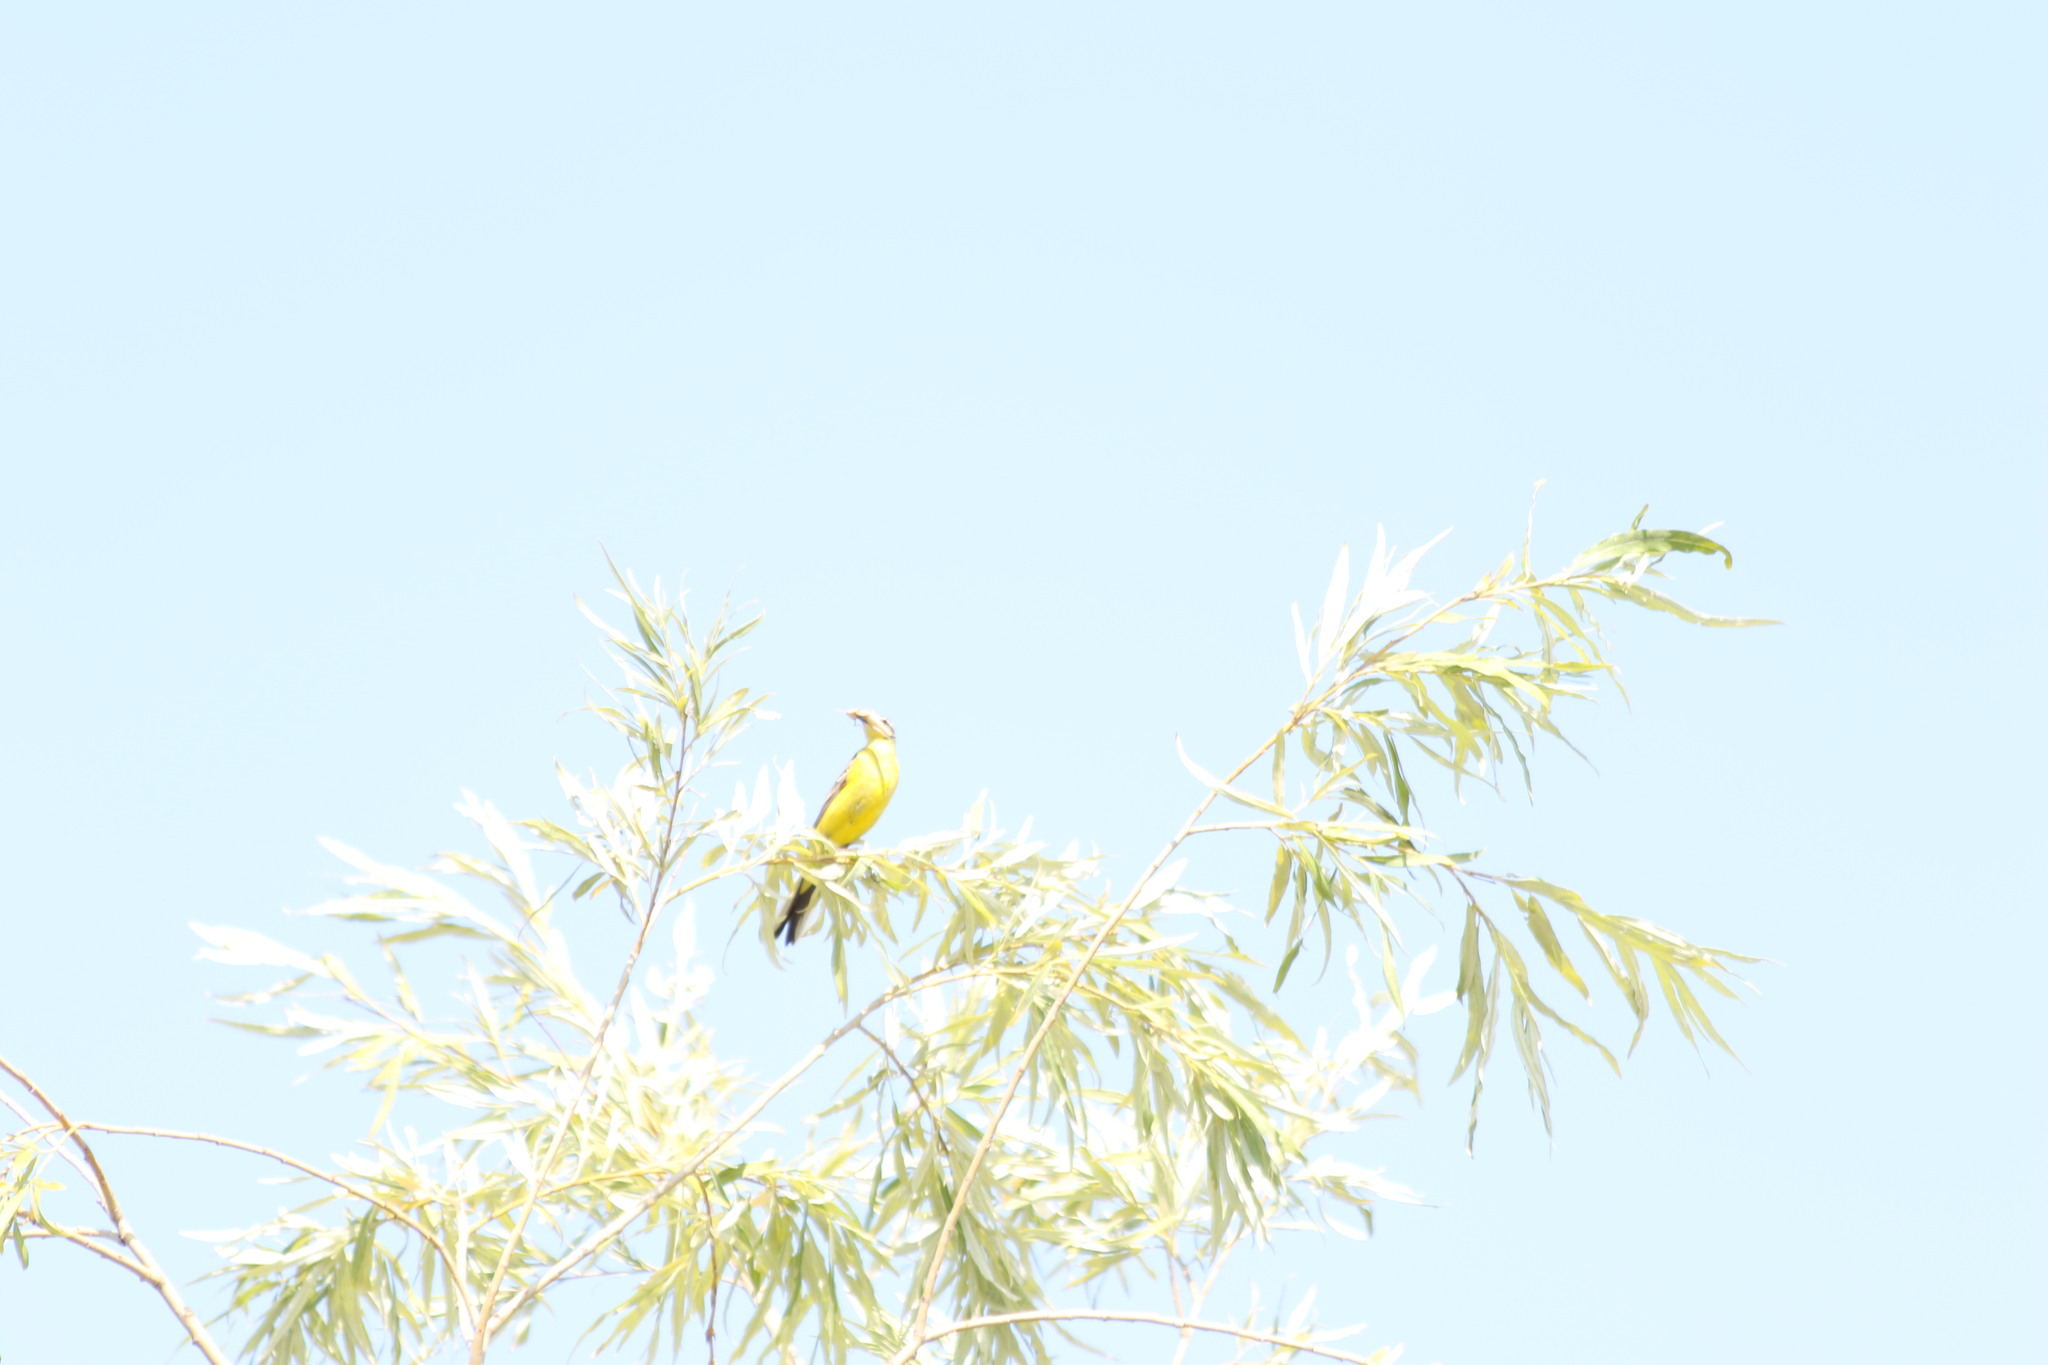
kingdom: Animalia
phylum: Chordata
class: Aves
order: Passeriformes
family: Motacillidae
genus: Motacilla
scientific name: Motacilla flava
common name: Western yellow wagtail
